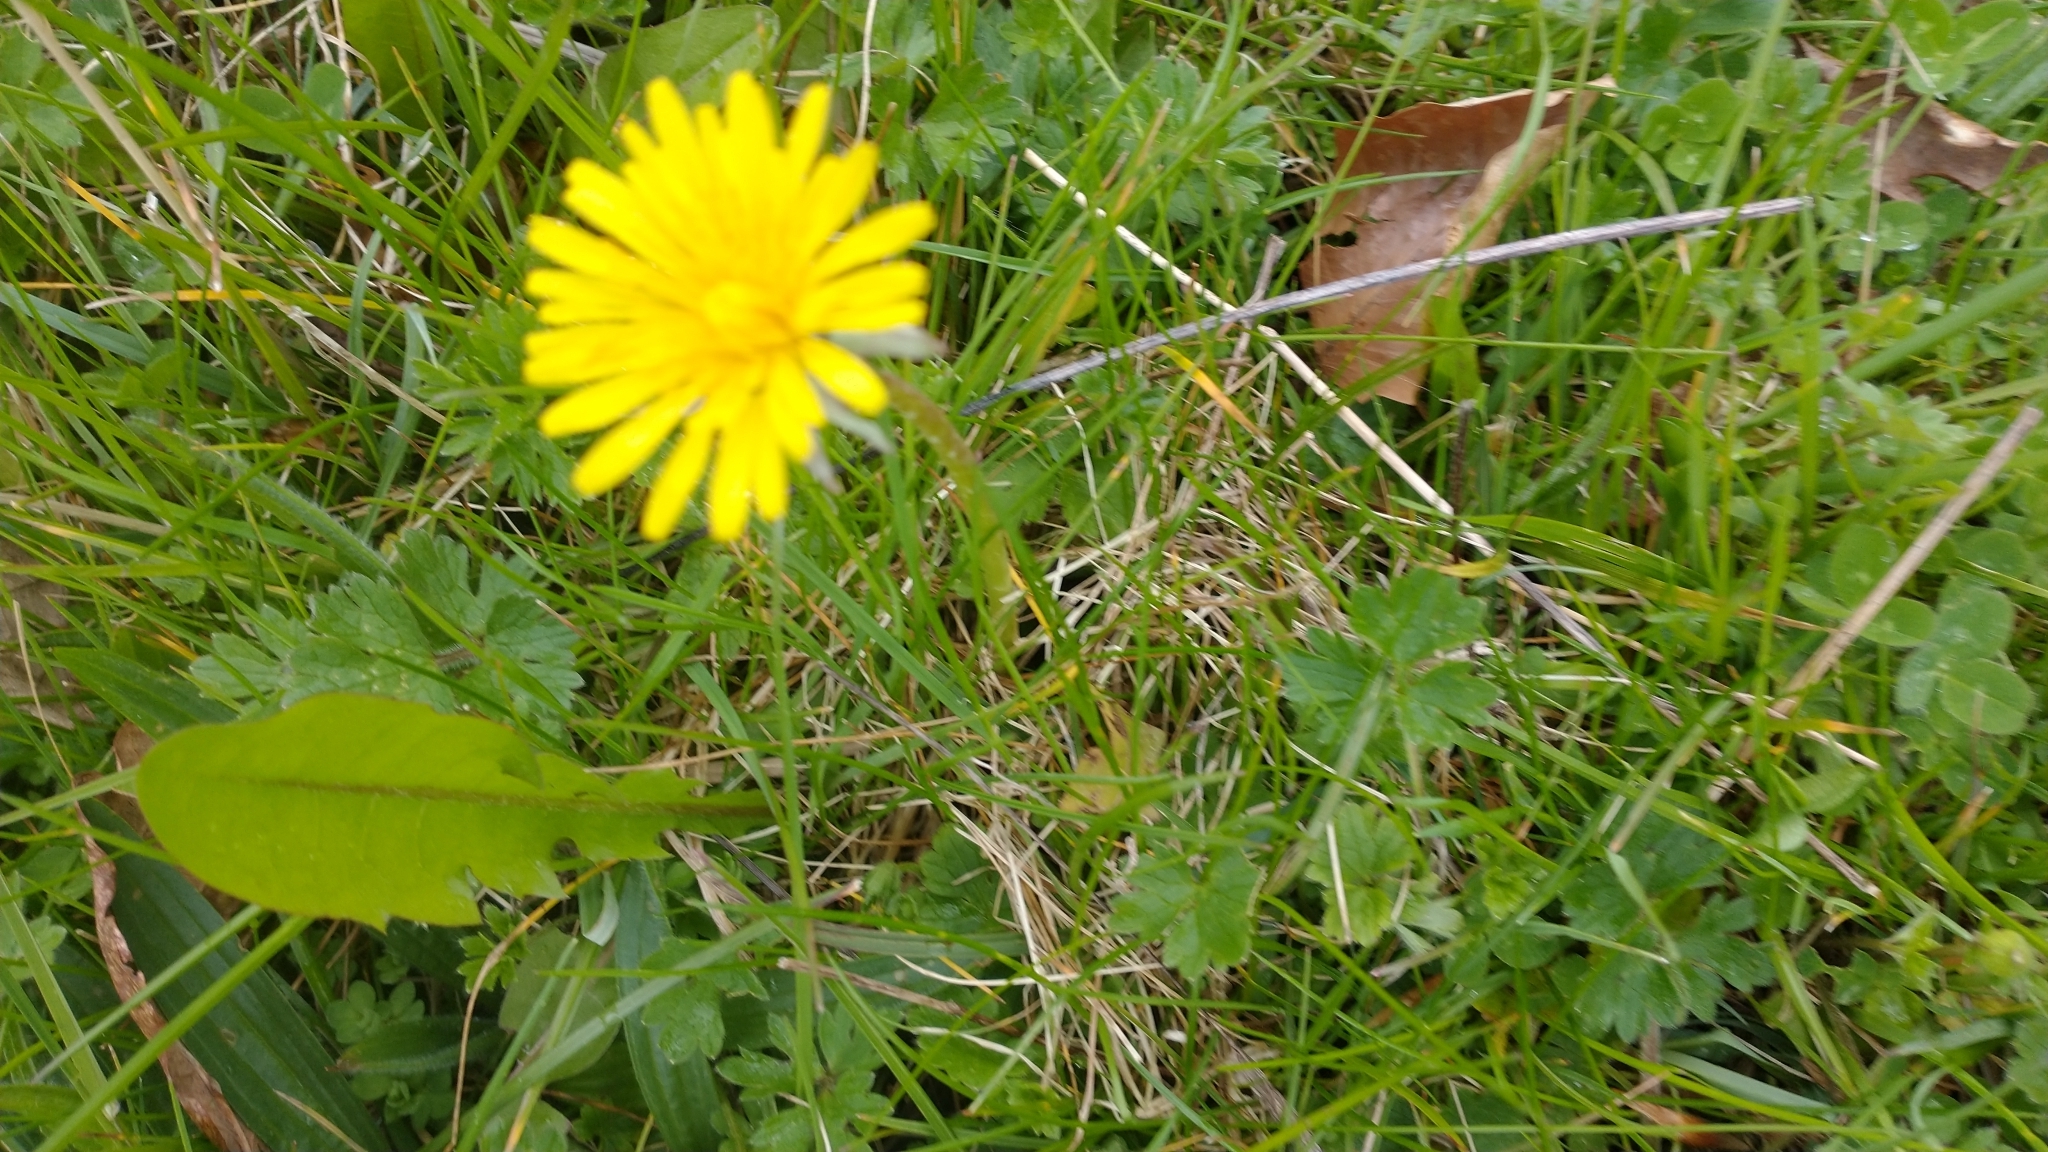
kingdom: Plantae
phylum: Tracheophyta
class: Magnoliopsida
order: Asterales
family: Asteraceae
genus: Taraxacum
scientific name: Taraxacum officinale
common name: Common dandelion
